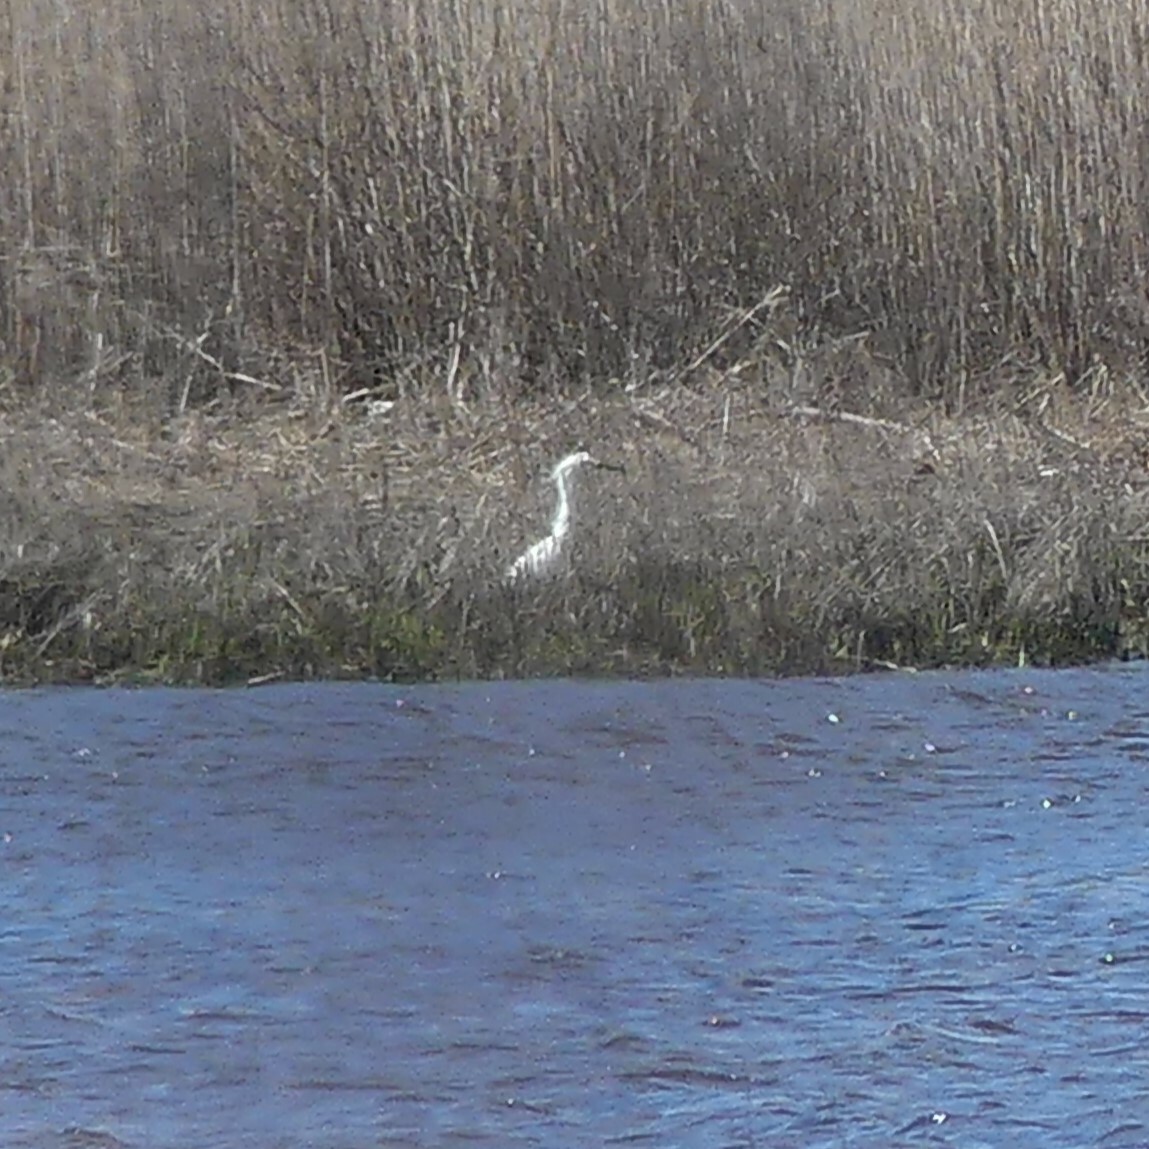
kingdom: Animalia
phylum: Chordata
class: Aves
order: Pelecaniformes
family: Ardeidae
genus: Egretta
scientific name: Egretta thula
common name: Snowy egret
